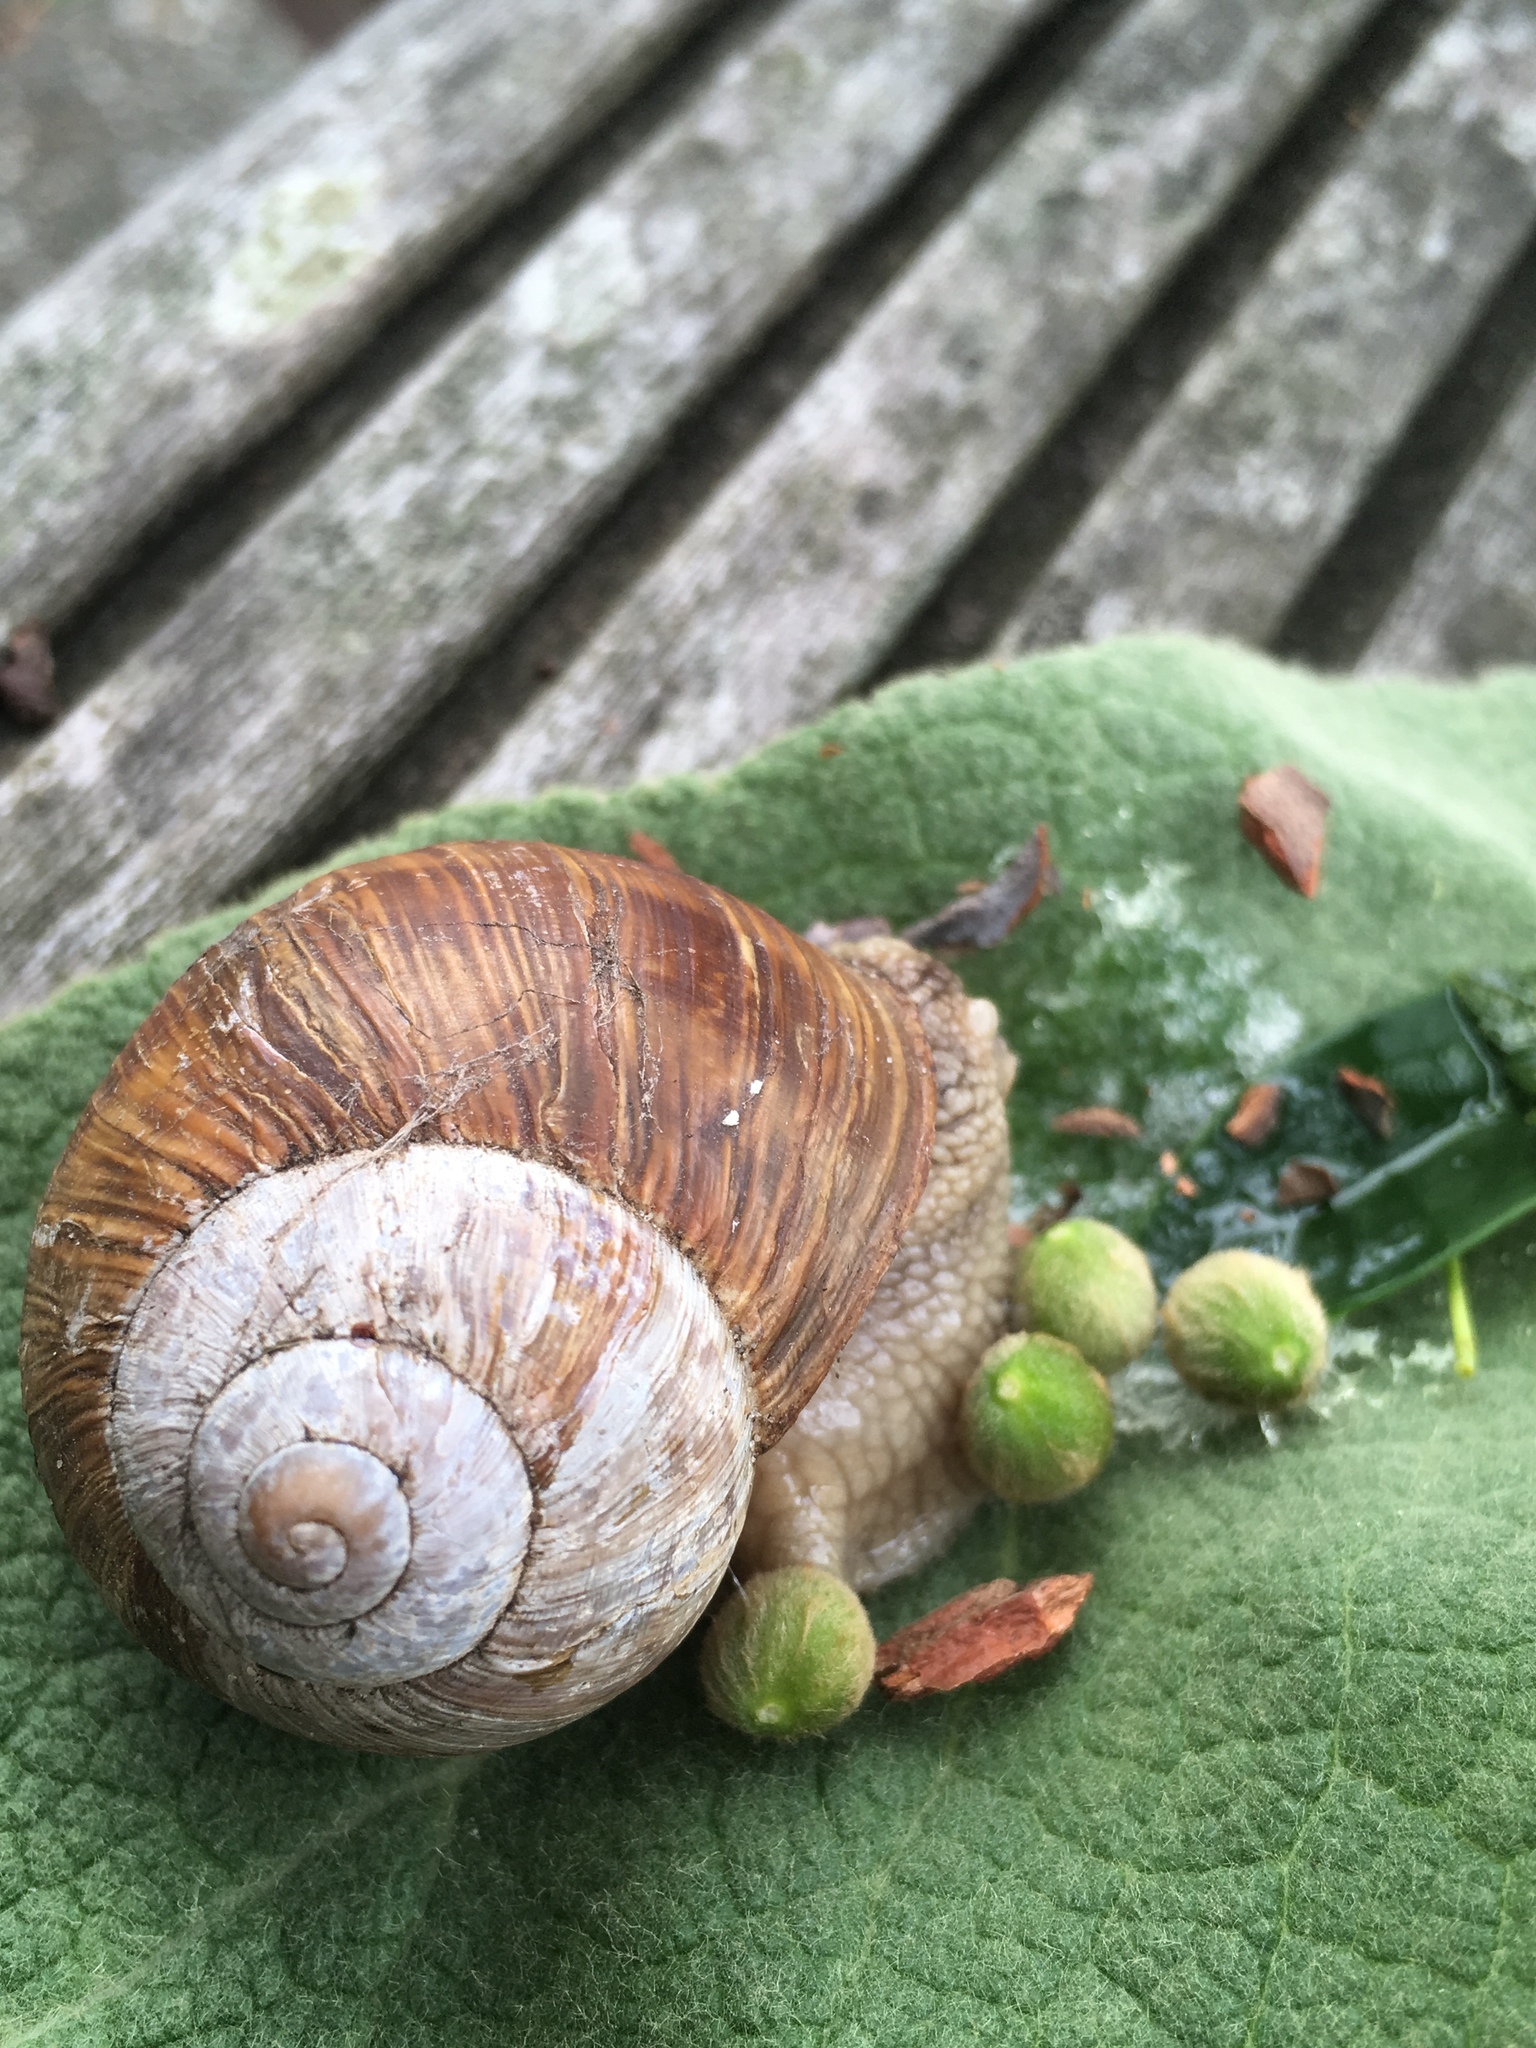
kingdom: Animalia
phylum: Mollusca
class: Gastropoda
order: Stylommatophora
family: Helicidae
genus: Helix
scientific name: Helix pomatia
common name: Roman snail
